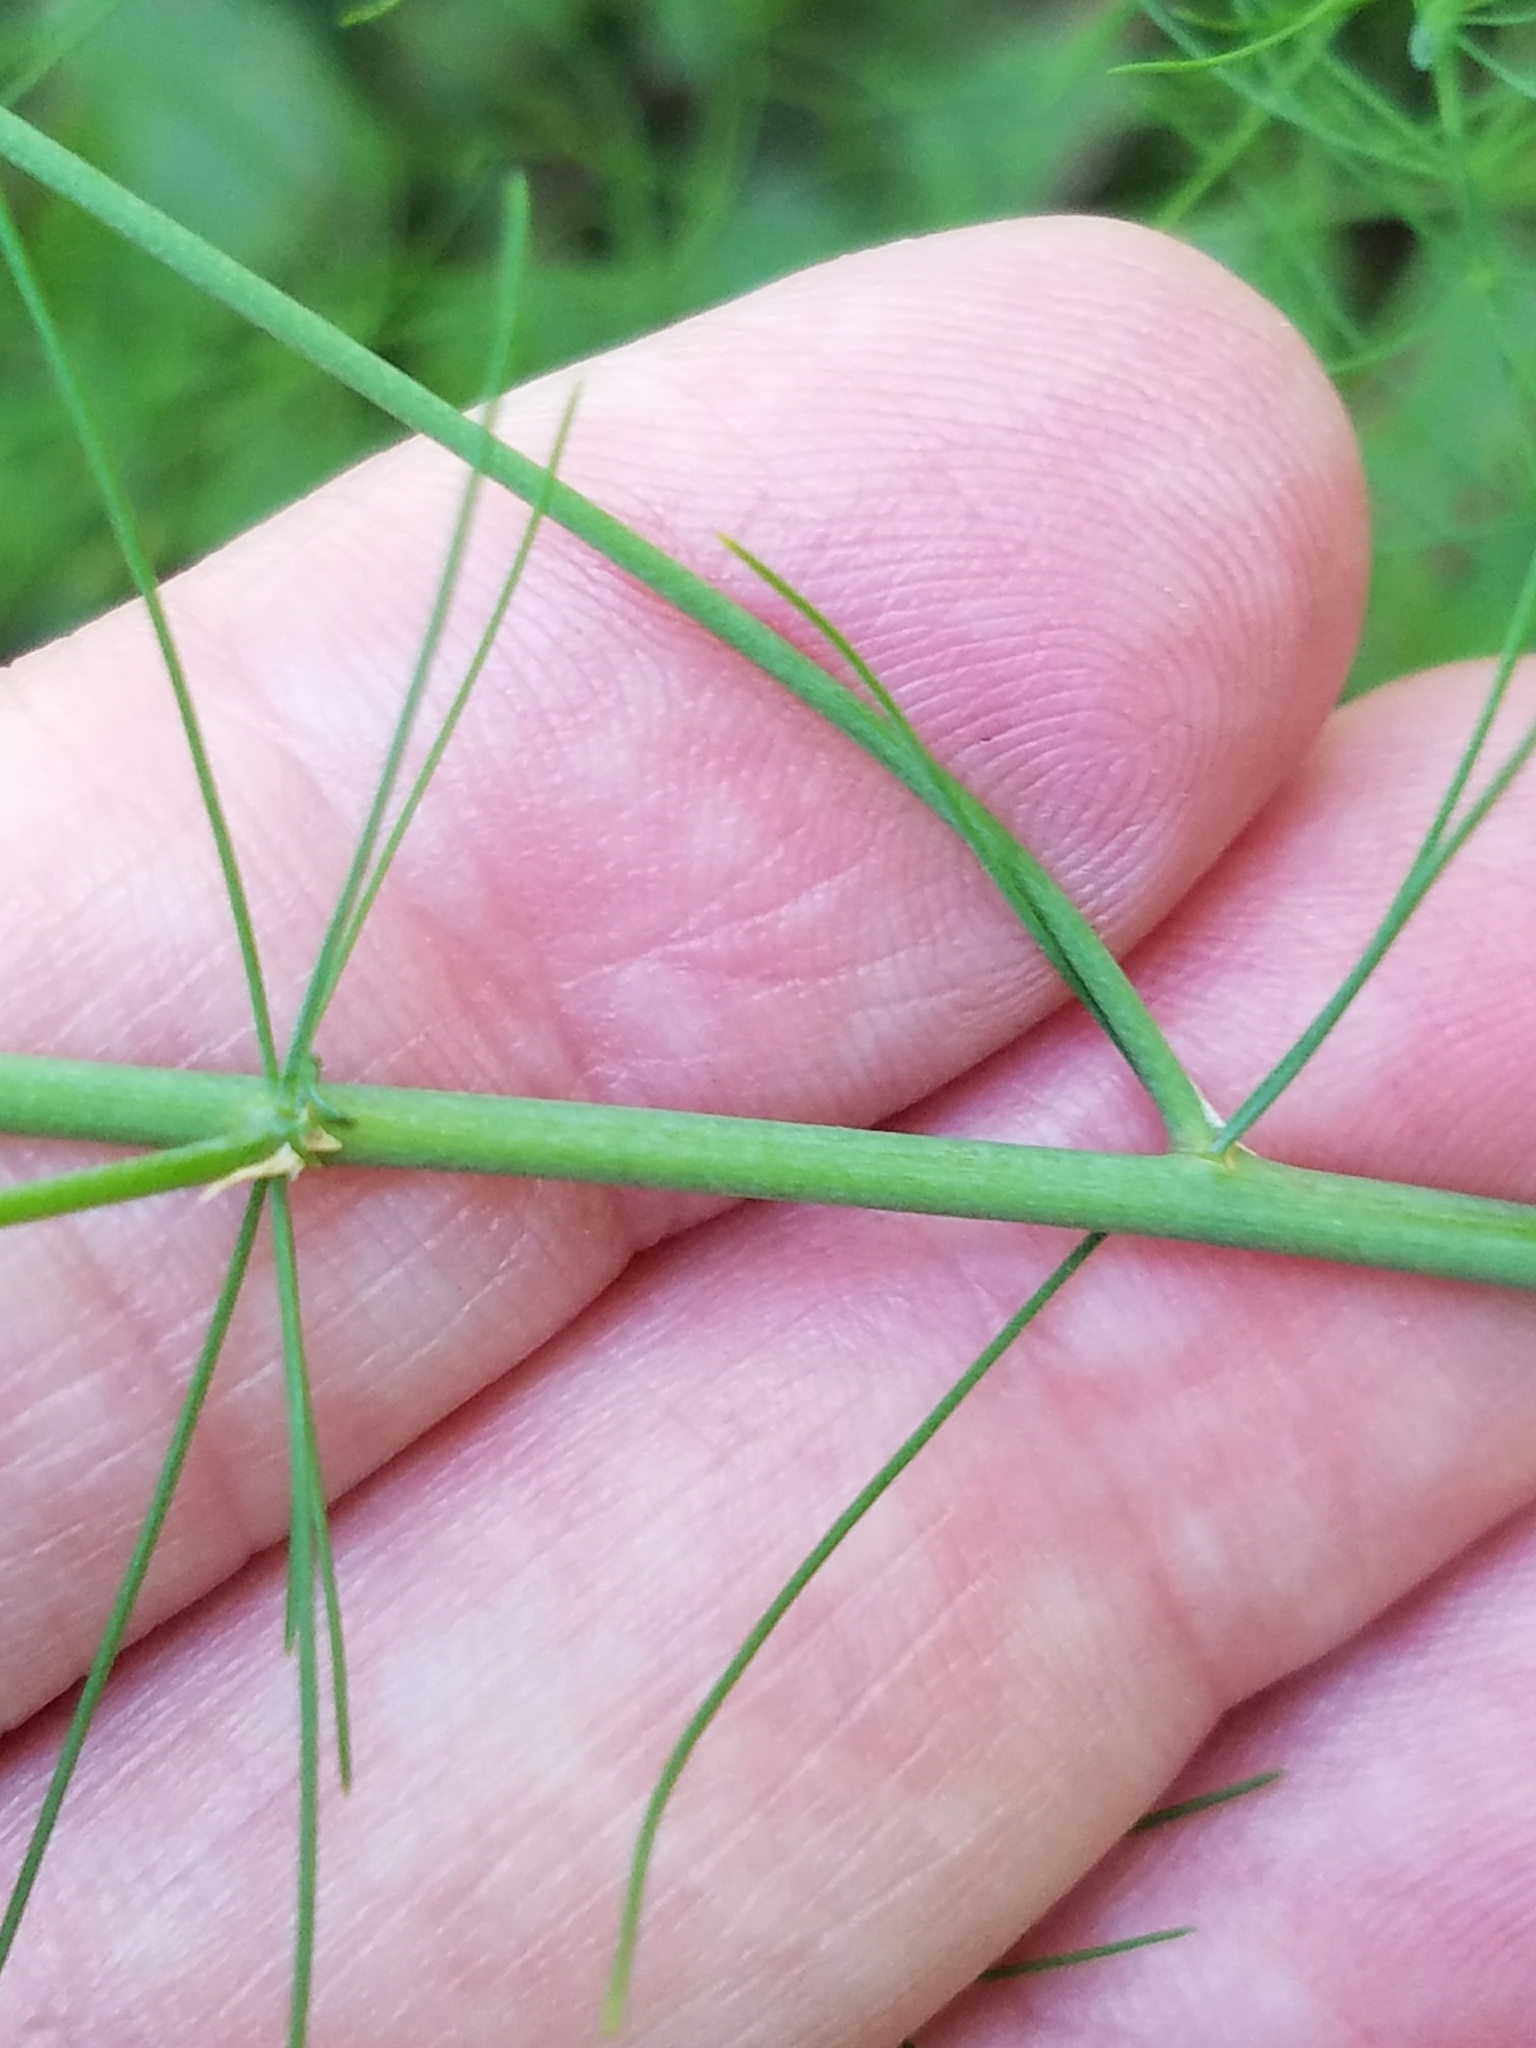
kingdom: Plantae
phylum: Tracheophyta
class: Liliopsida
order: Asparagales
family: Asparagaceae
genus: Asparagus
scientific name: Asparagus officinalis
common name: Garden asparagus
